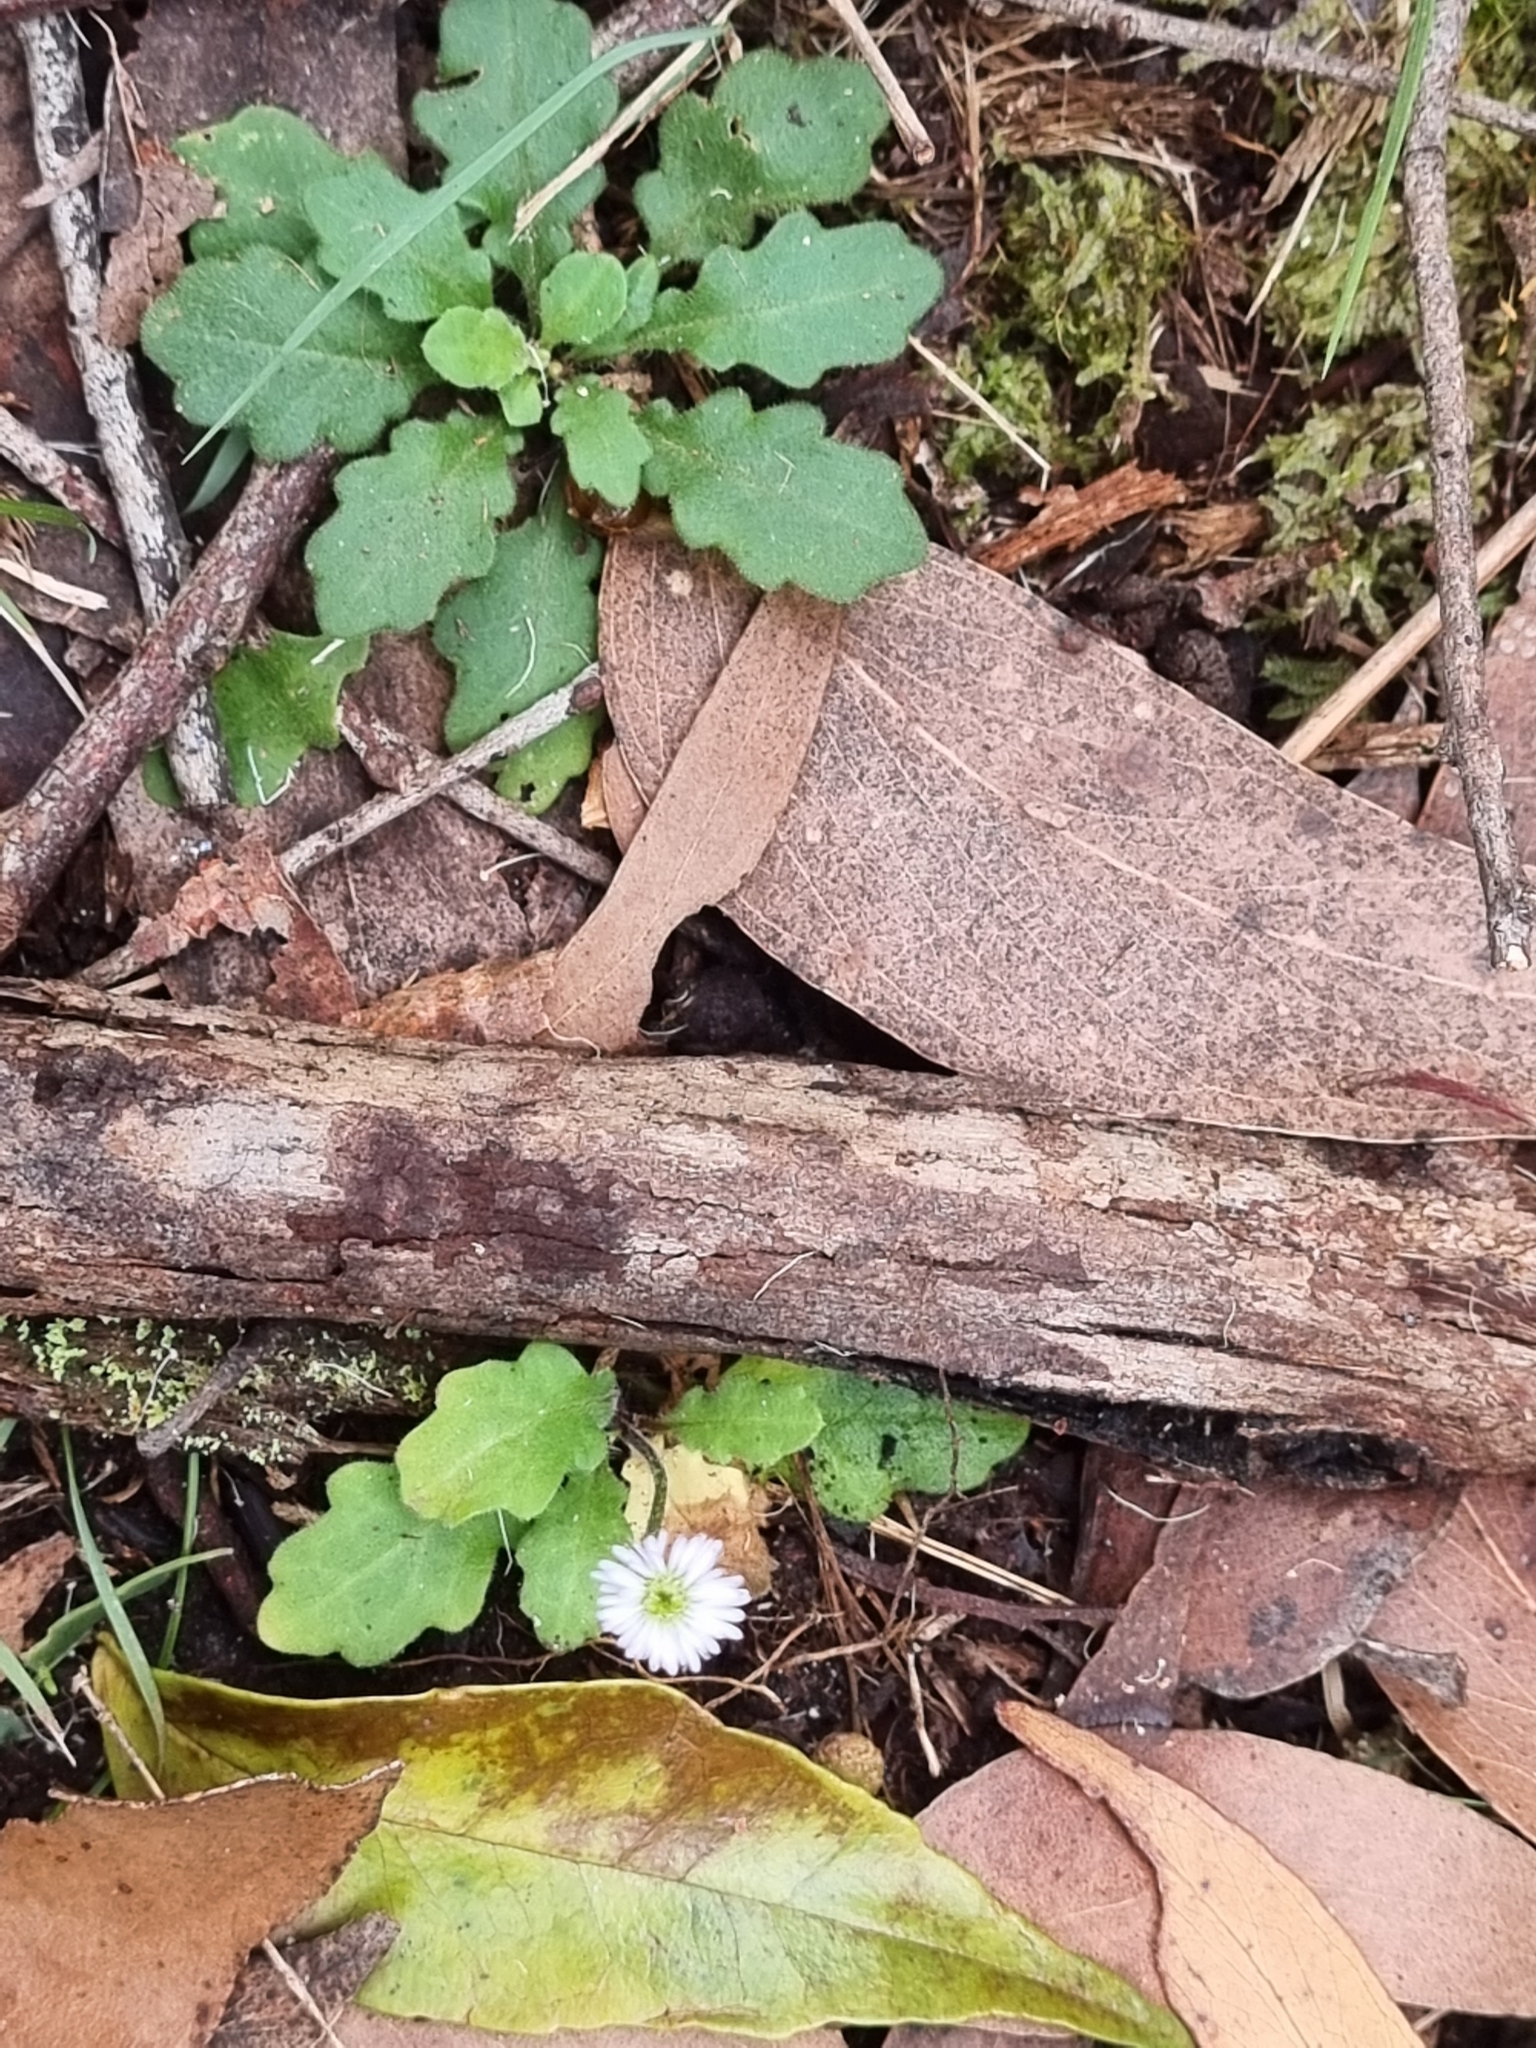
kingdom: Plantae
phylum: Tracheophyta
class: Magnoliopsida
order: Asterales
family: Asteraceae
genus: Lagenophora
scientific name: Lagenophora stipitata
